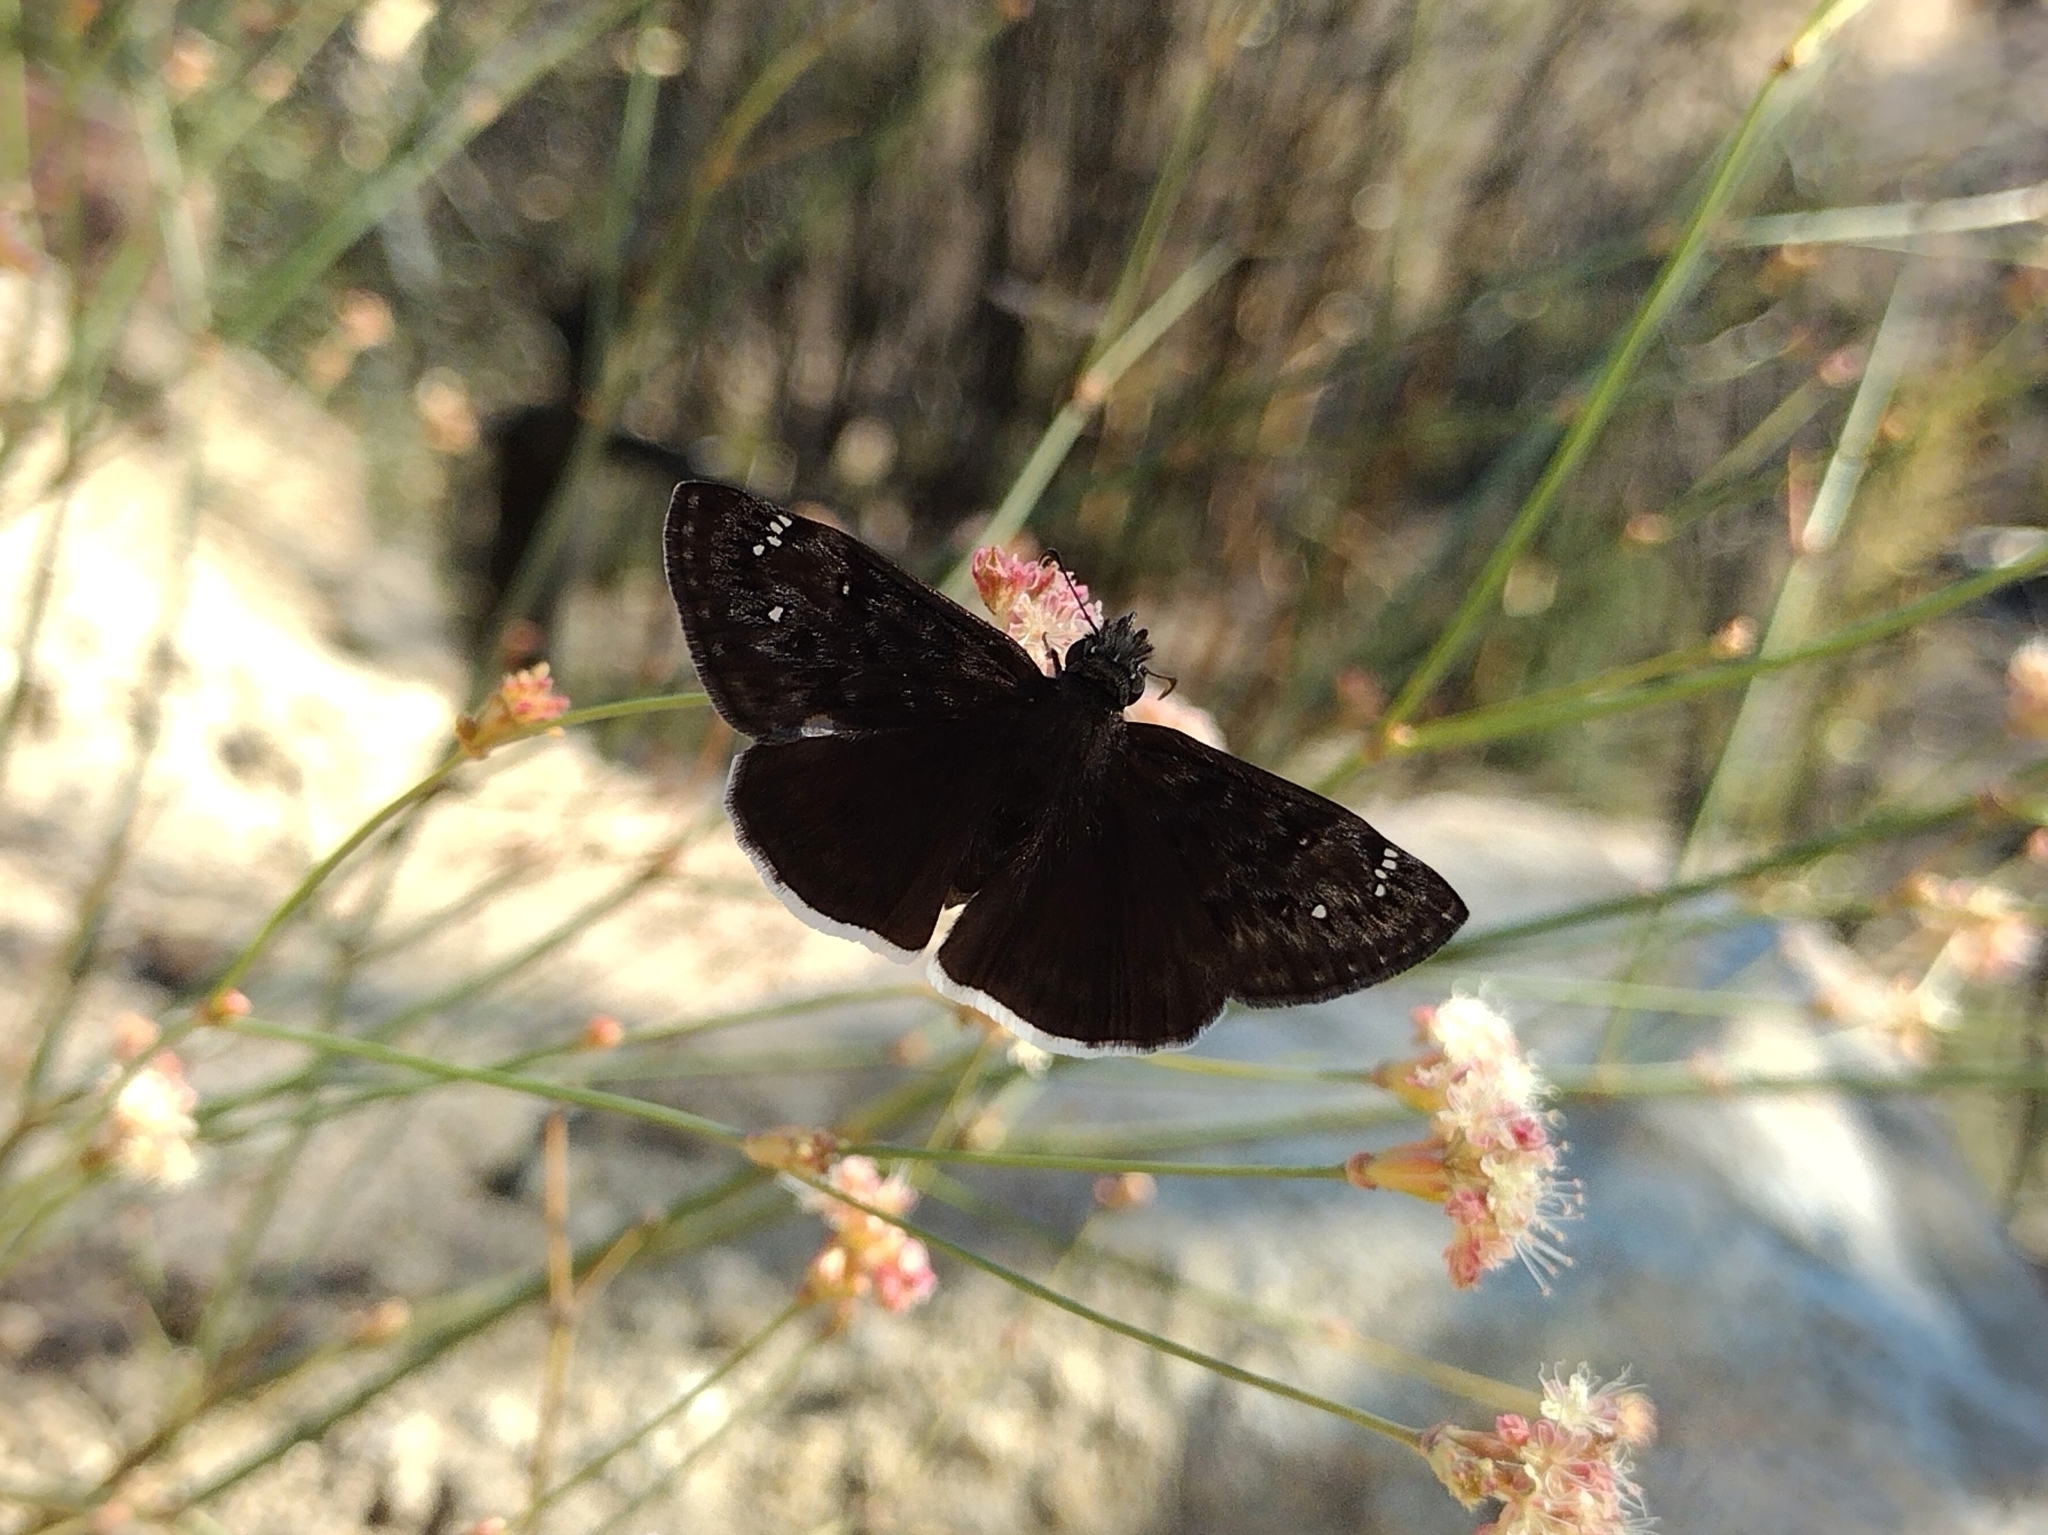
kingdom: Animalia
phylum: Arthropoda
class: Insecta
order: Lepidoptera
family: Hesperiidae
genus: Erynnis
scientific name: Erynnis tristis
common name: Mournful duskywing
